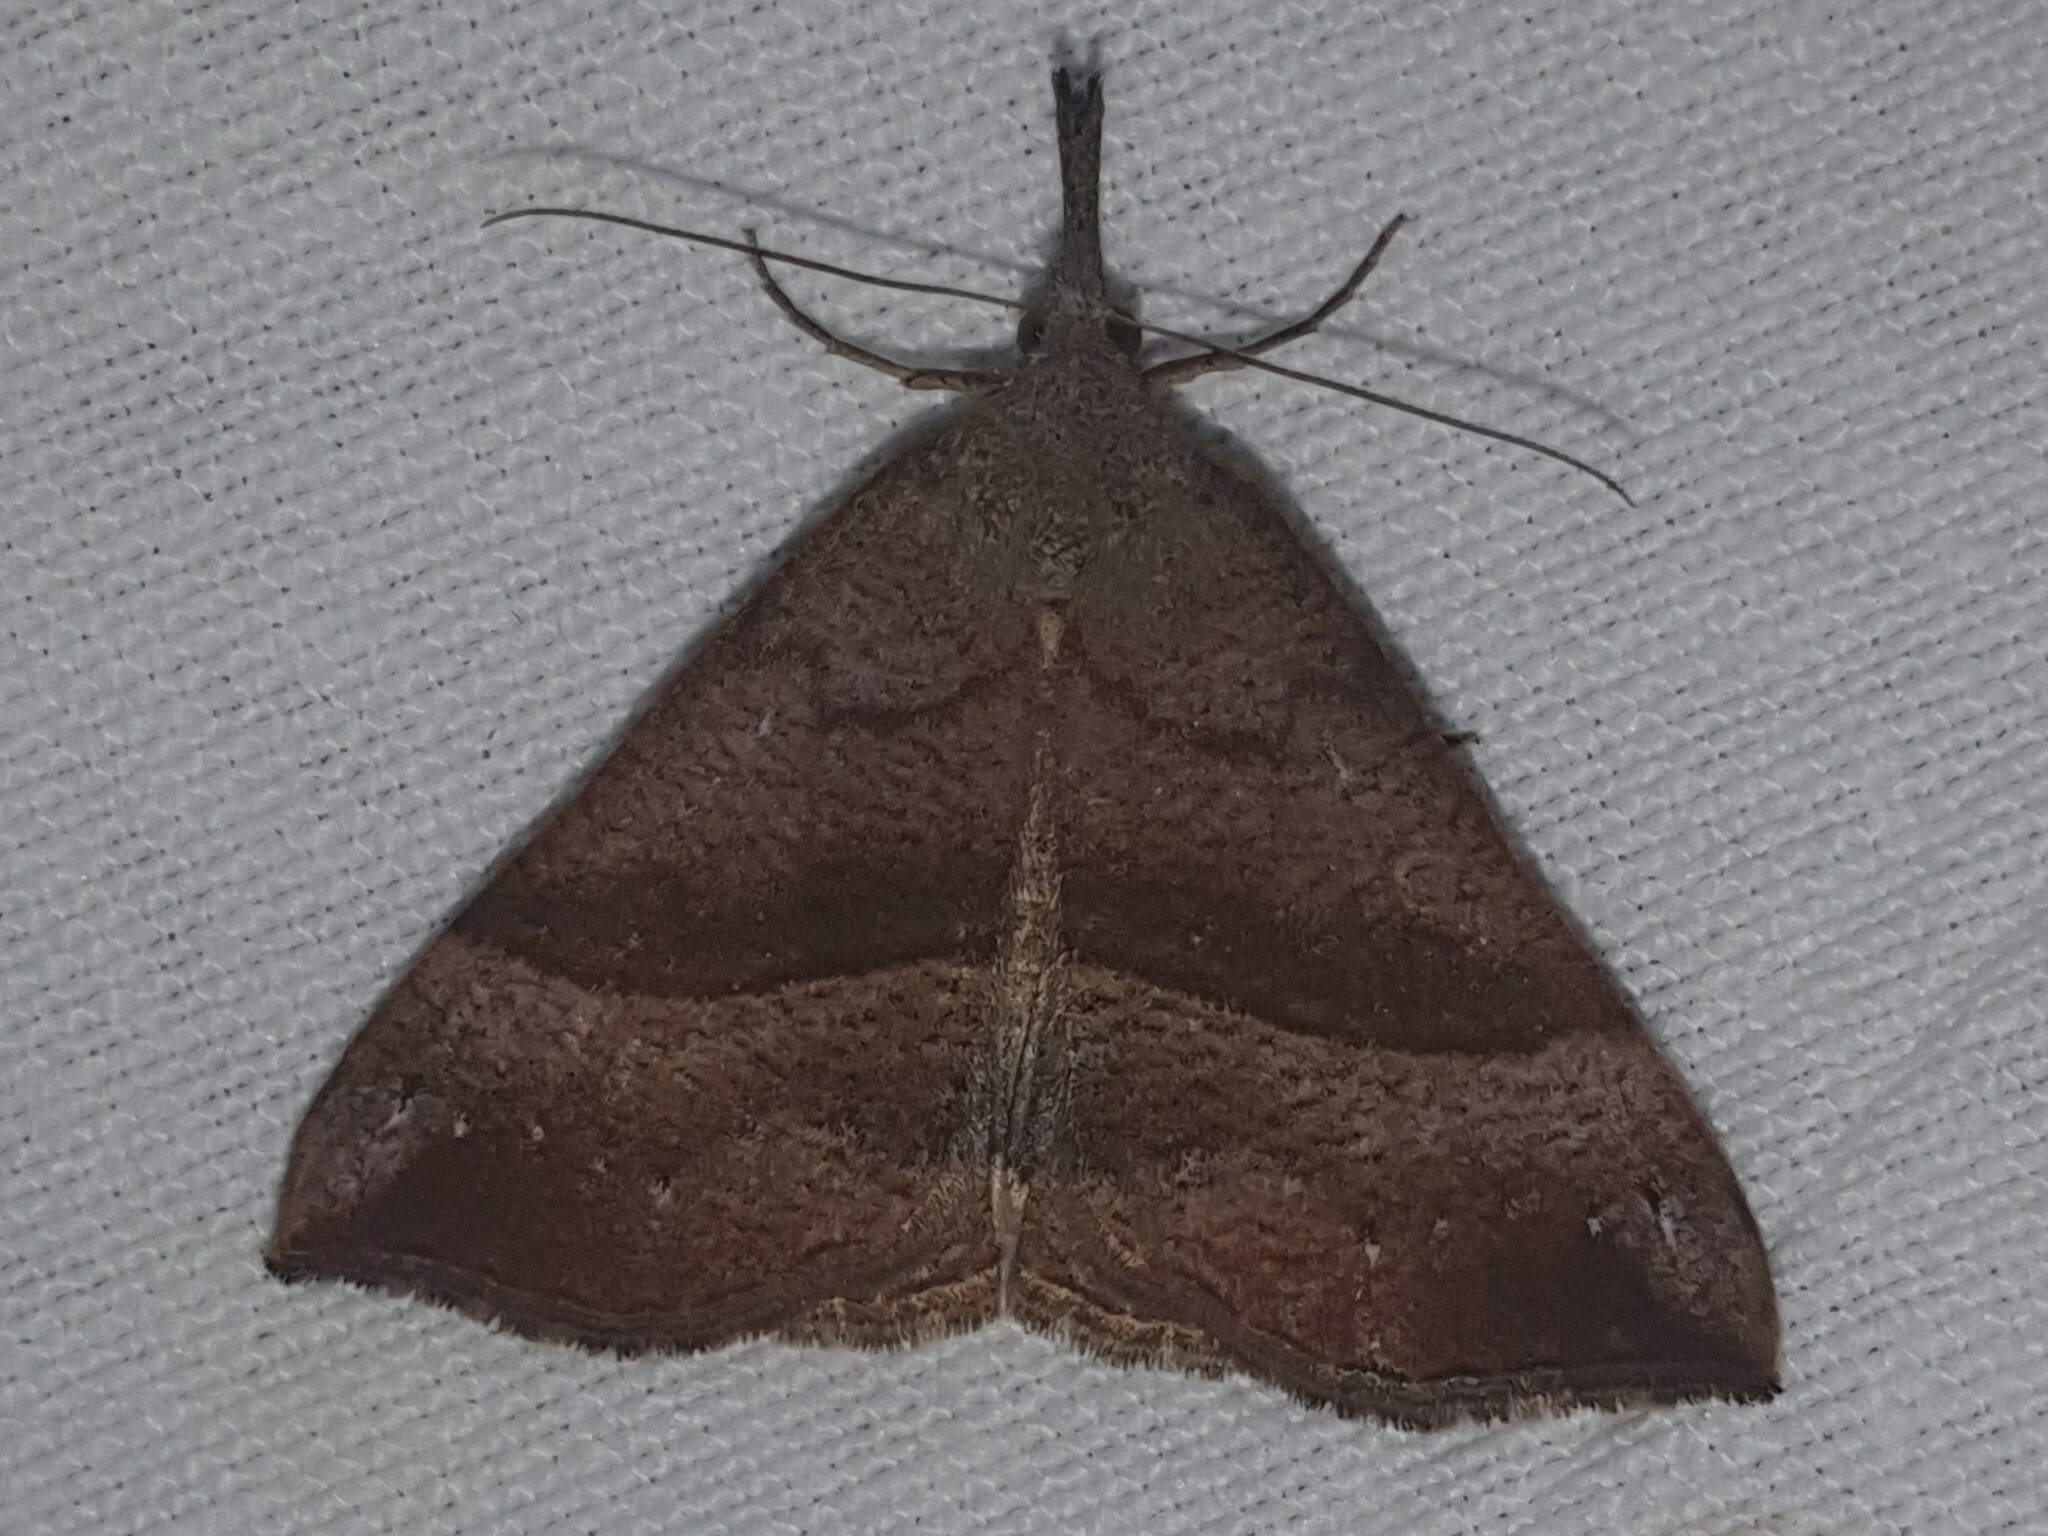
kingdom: Animalia
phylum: Arthropoda
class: Insecta
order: Lepidoptera
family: Erebidae
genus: Hypena
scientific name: Hypena proboscidalis
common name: Snout
